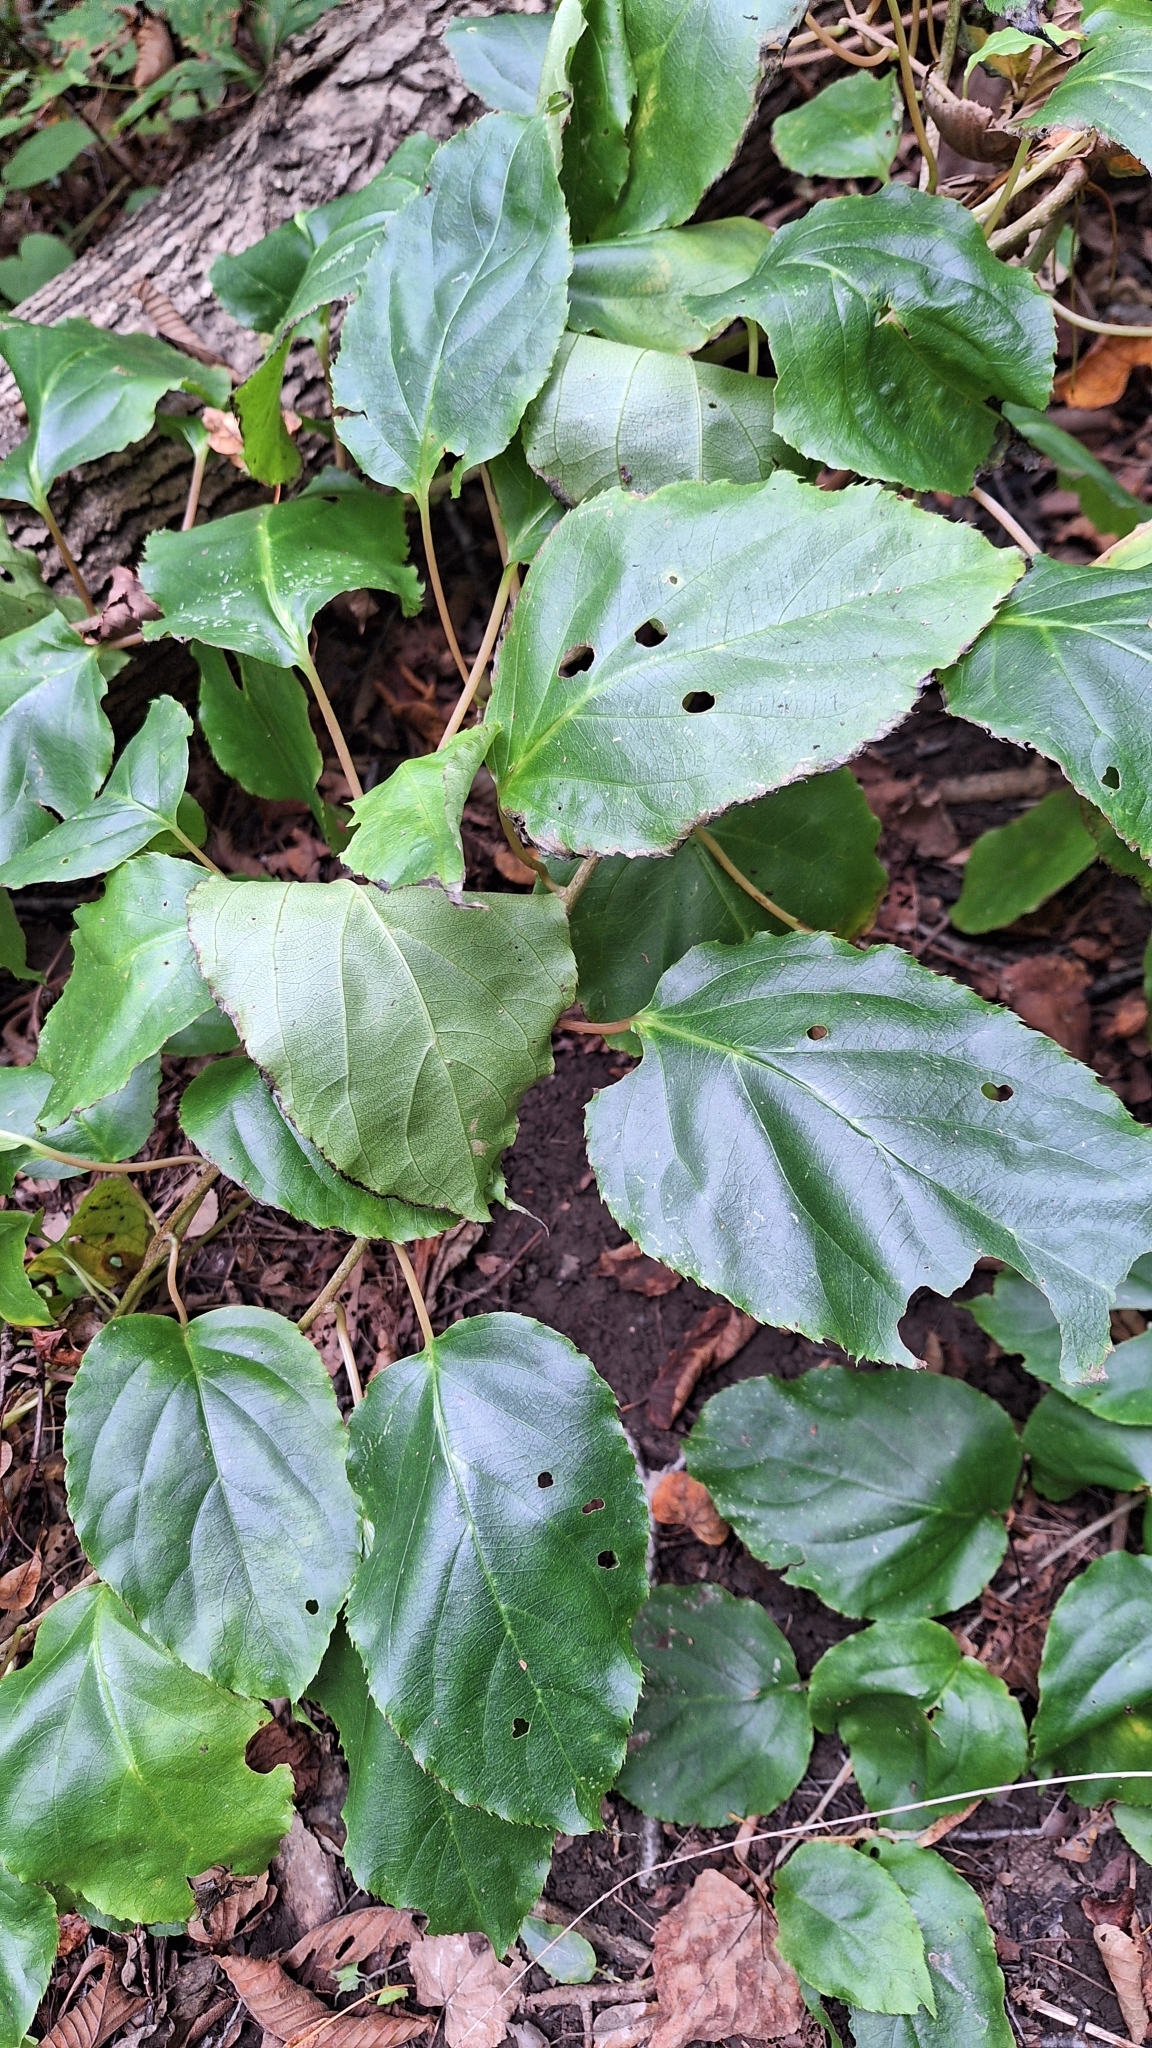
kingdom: Plantae
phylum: Tracheophyta
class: Magnoliopsida
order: Ericales
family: Actinidiaceae
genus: Actinidia
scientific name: Actinidia arguta
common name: Tara vine
